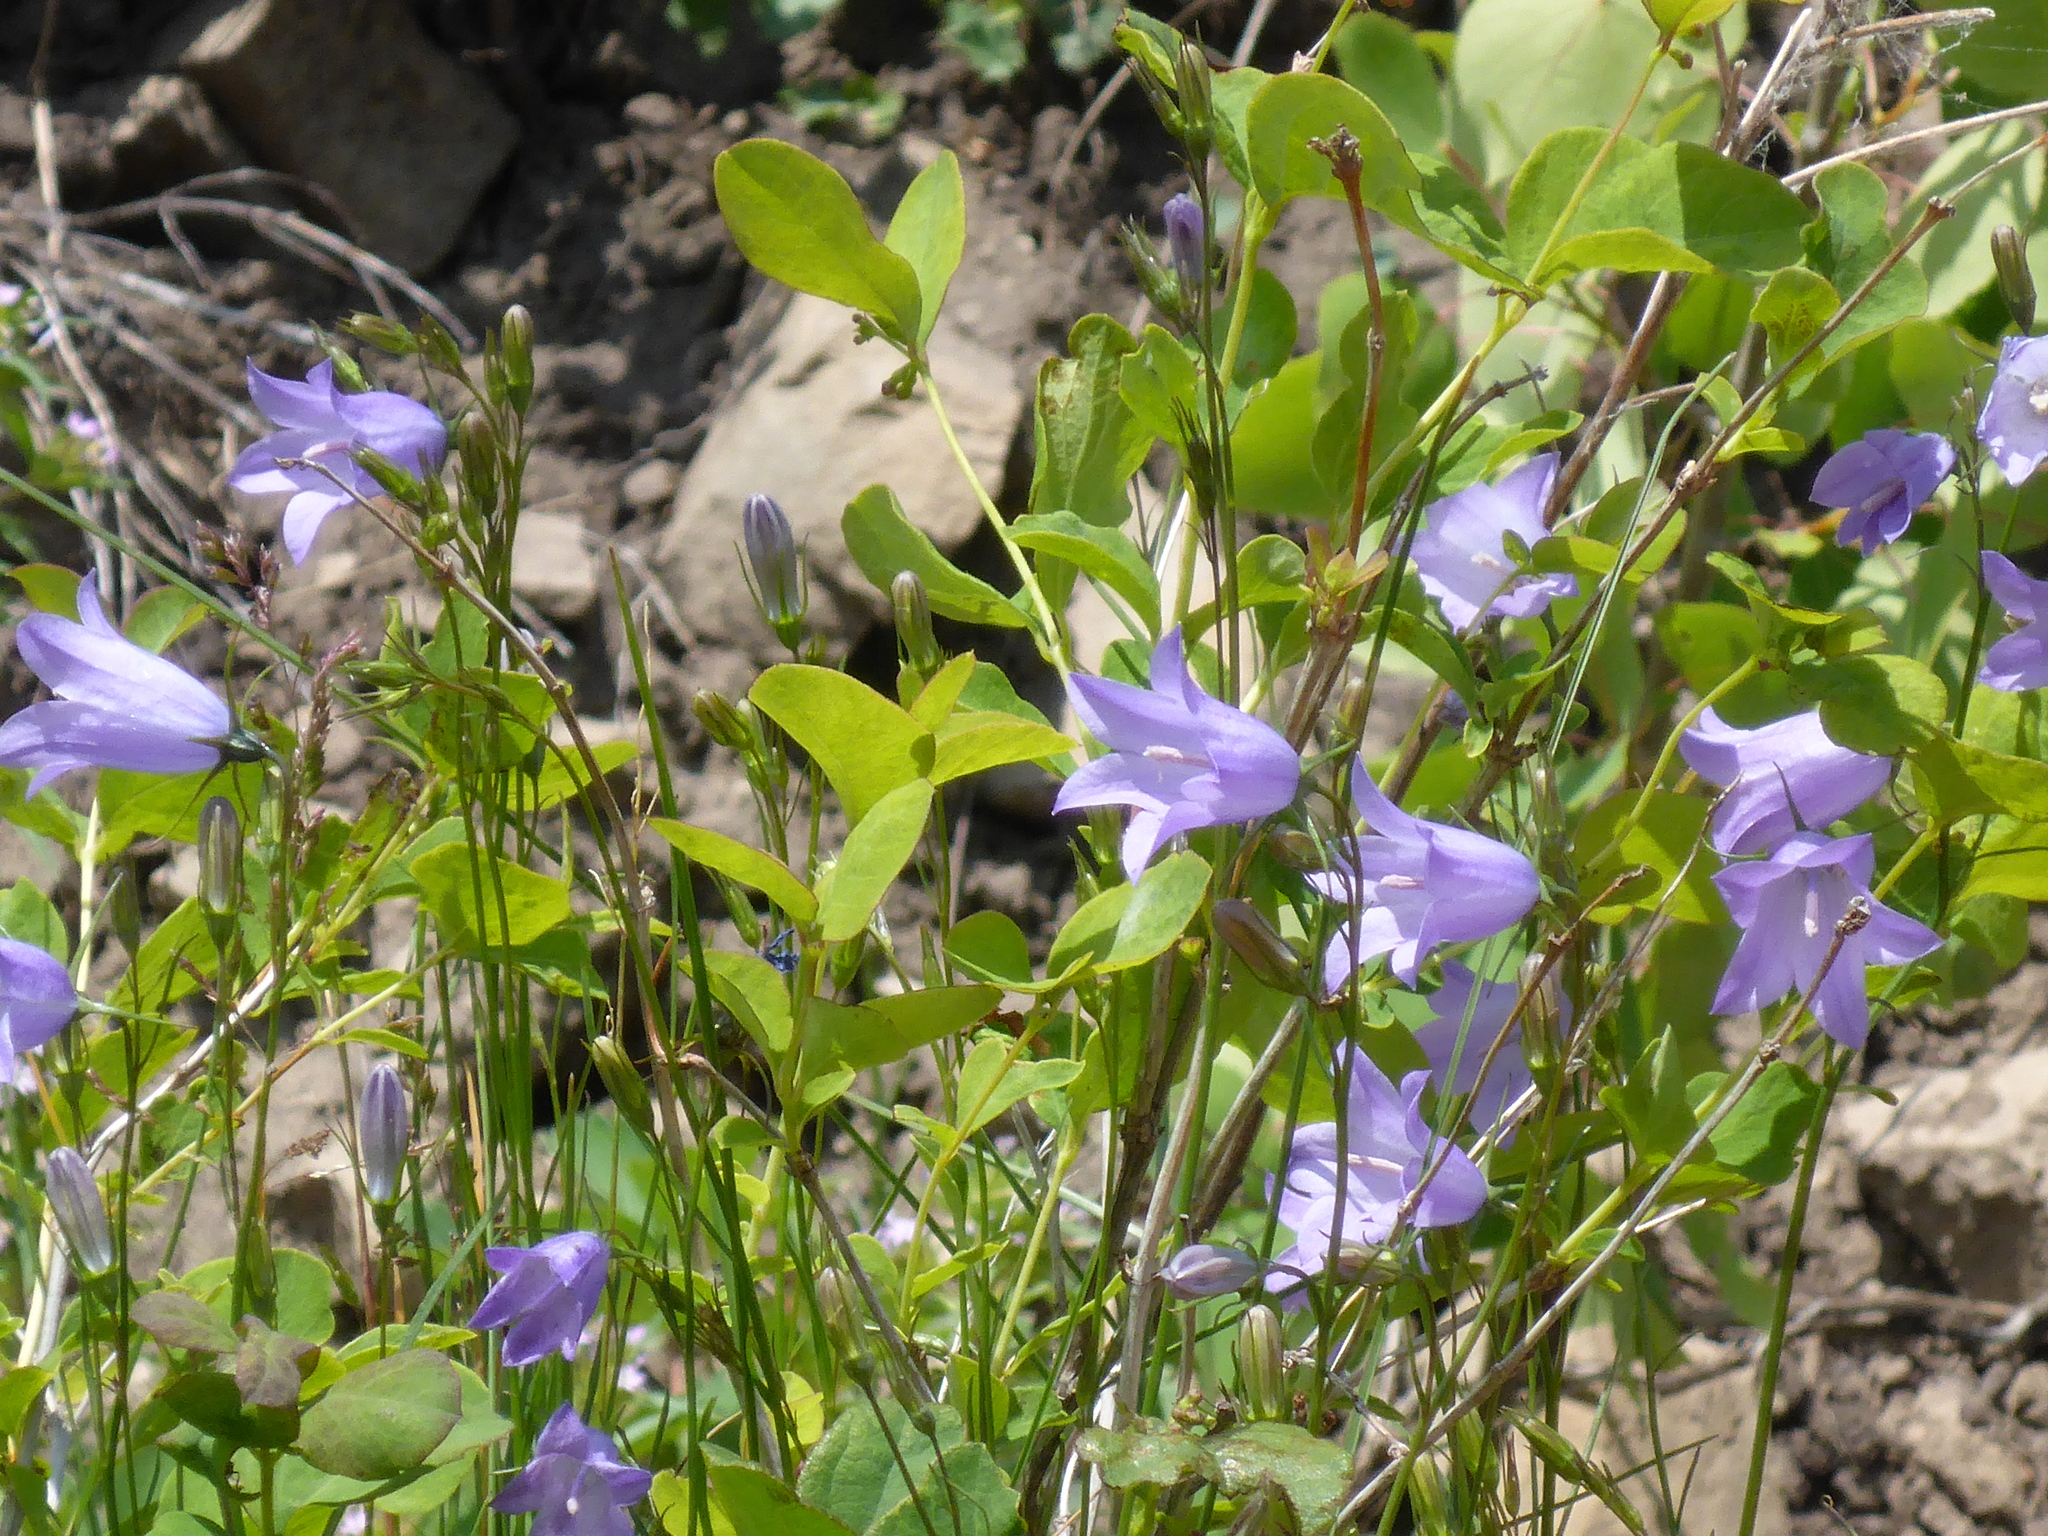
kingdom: Plantae
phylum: Tracheophyta
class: Magnoliopsida
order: Asterales
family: Campanulaceae
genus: Campanula
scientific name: Campanula alaskana
